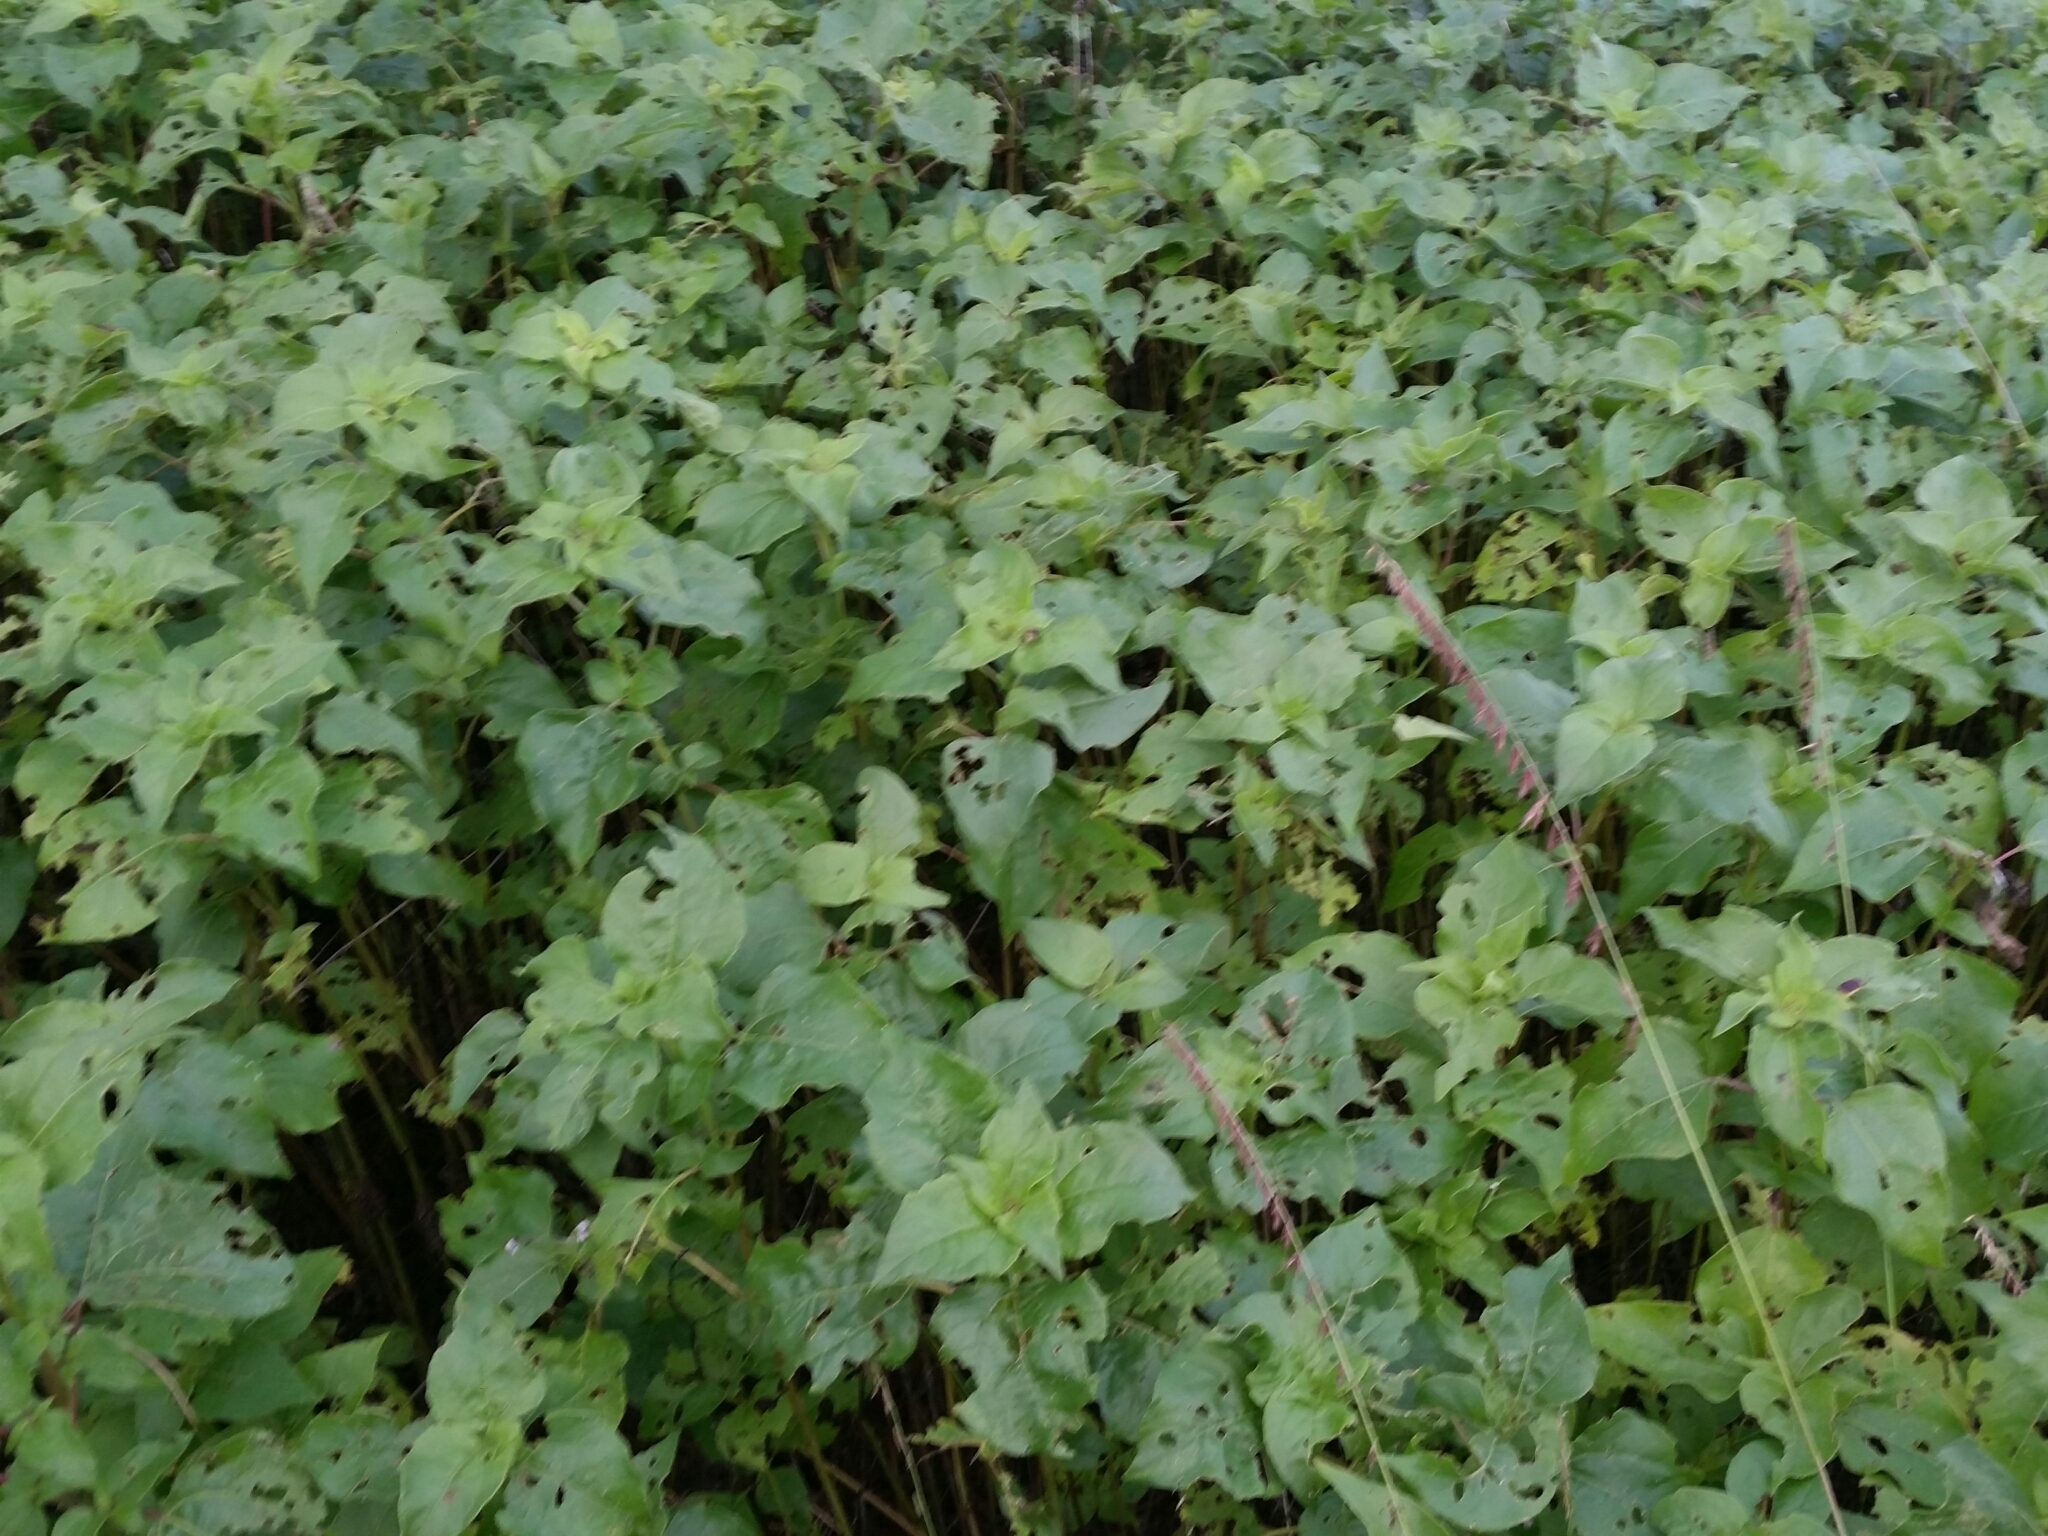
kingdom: Plantae
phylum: Tracheophyta
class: Magnoliopsida
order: Asterales
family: Asteraceae
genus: Tithonia
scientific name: Tithonia tubaeformis
